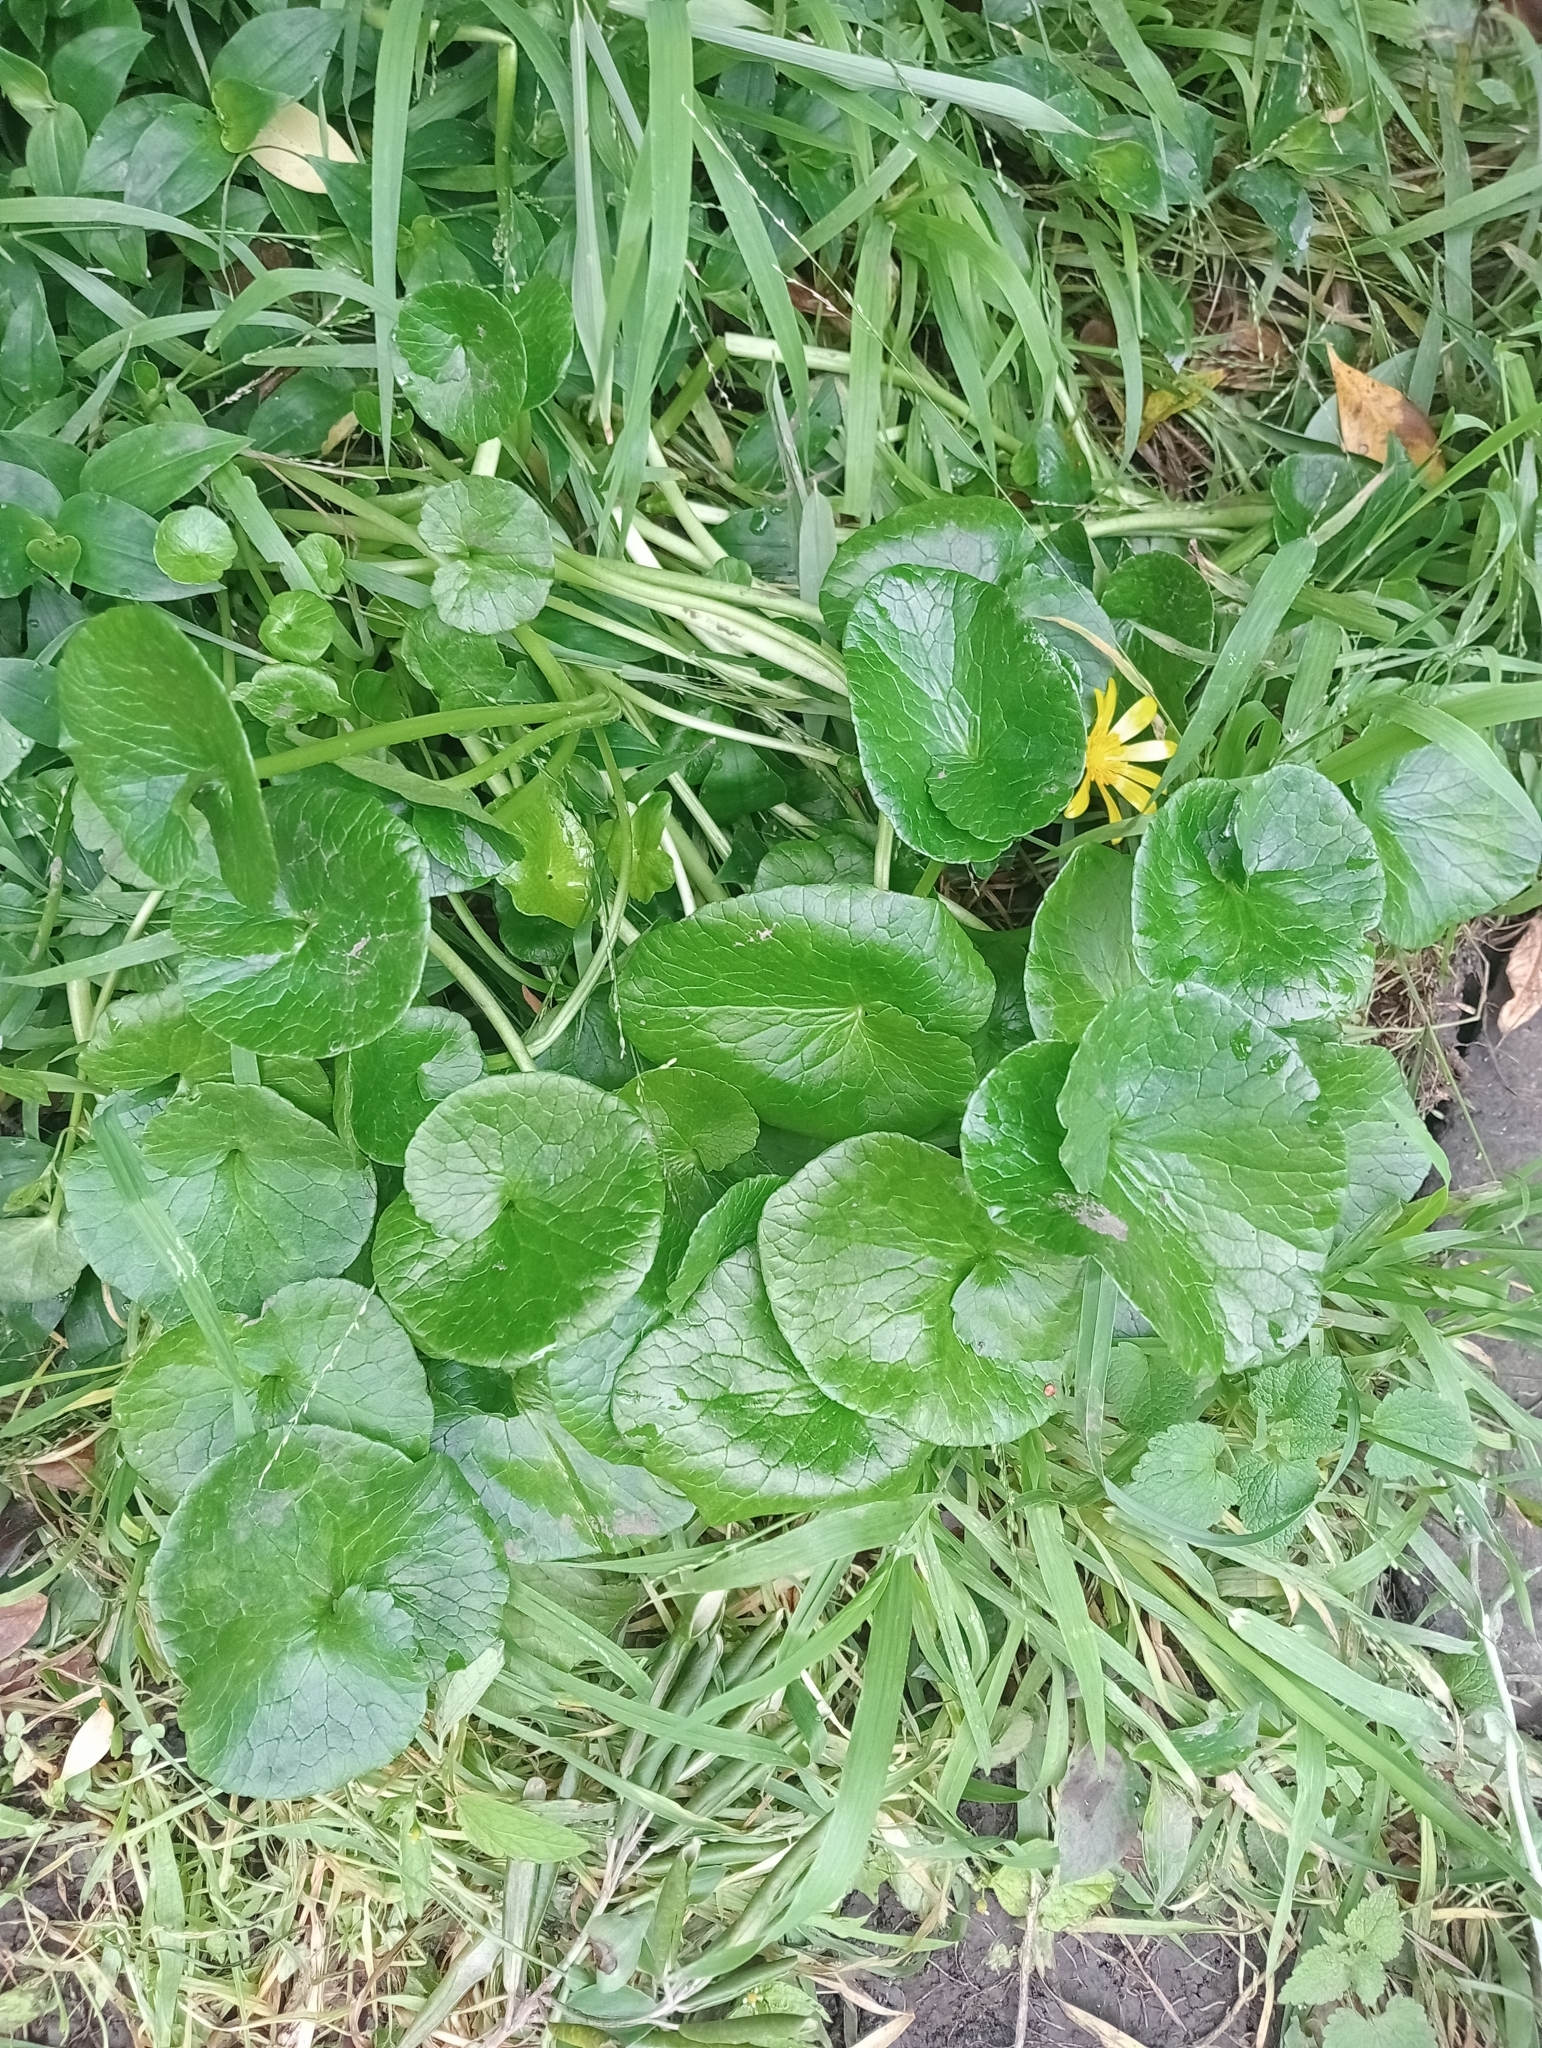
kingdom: Plantae
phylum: Tracheophyta
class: Magnoliopsida
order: Ranunculales
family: Ranunculaceae
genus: Ficaria
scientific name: Ficaria verna
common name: Lesser celandine
